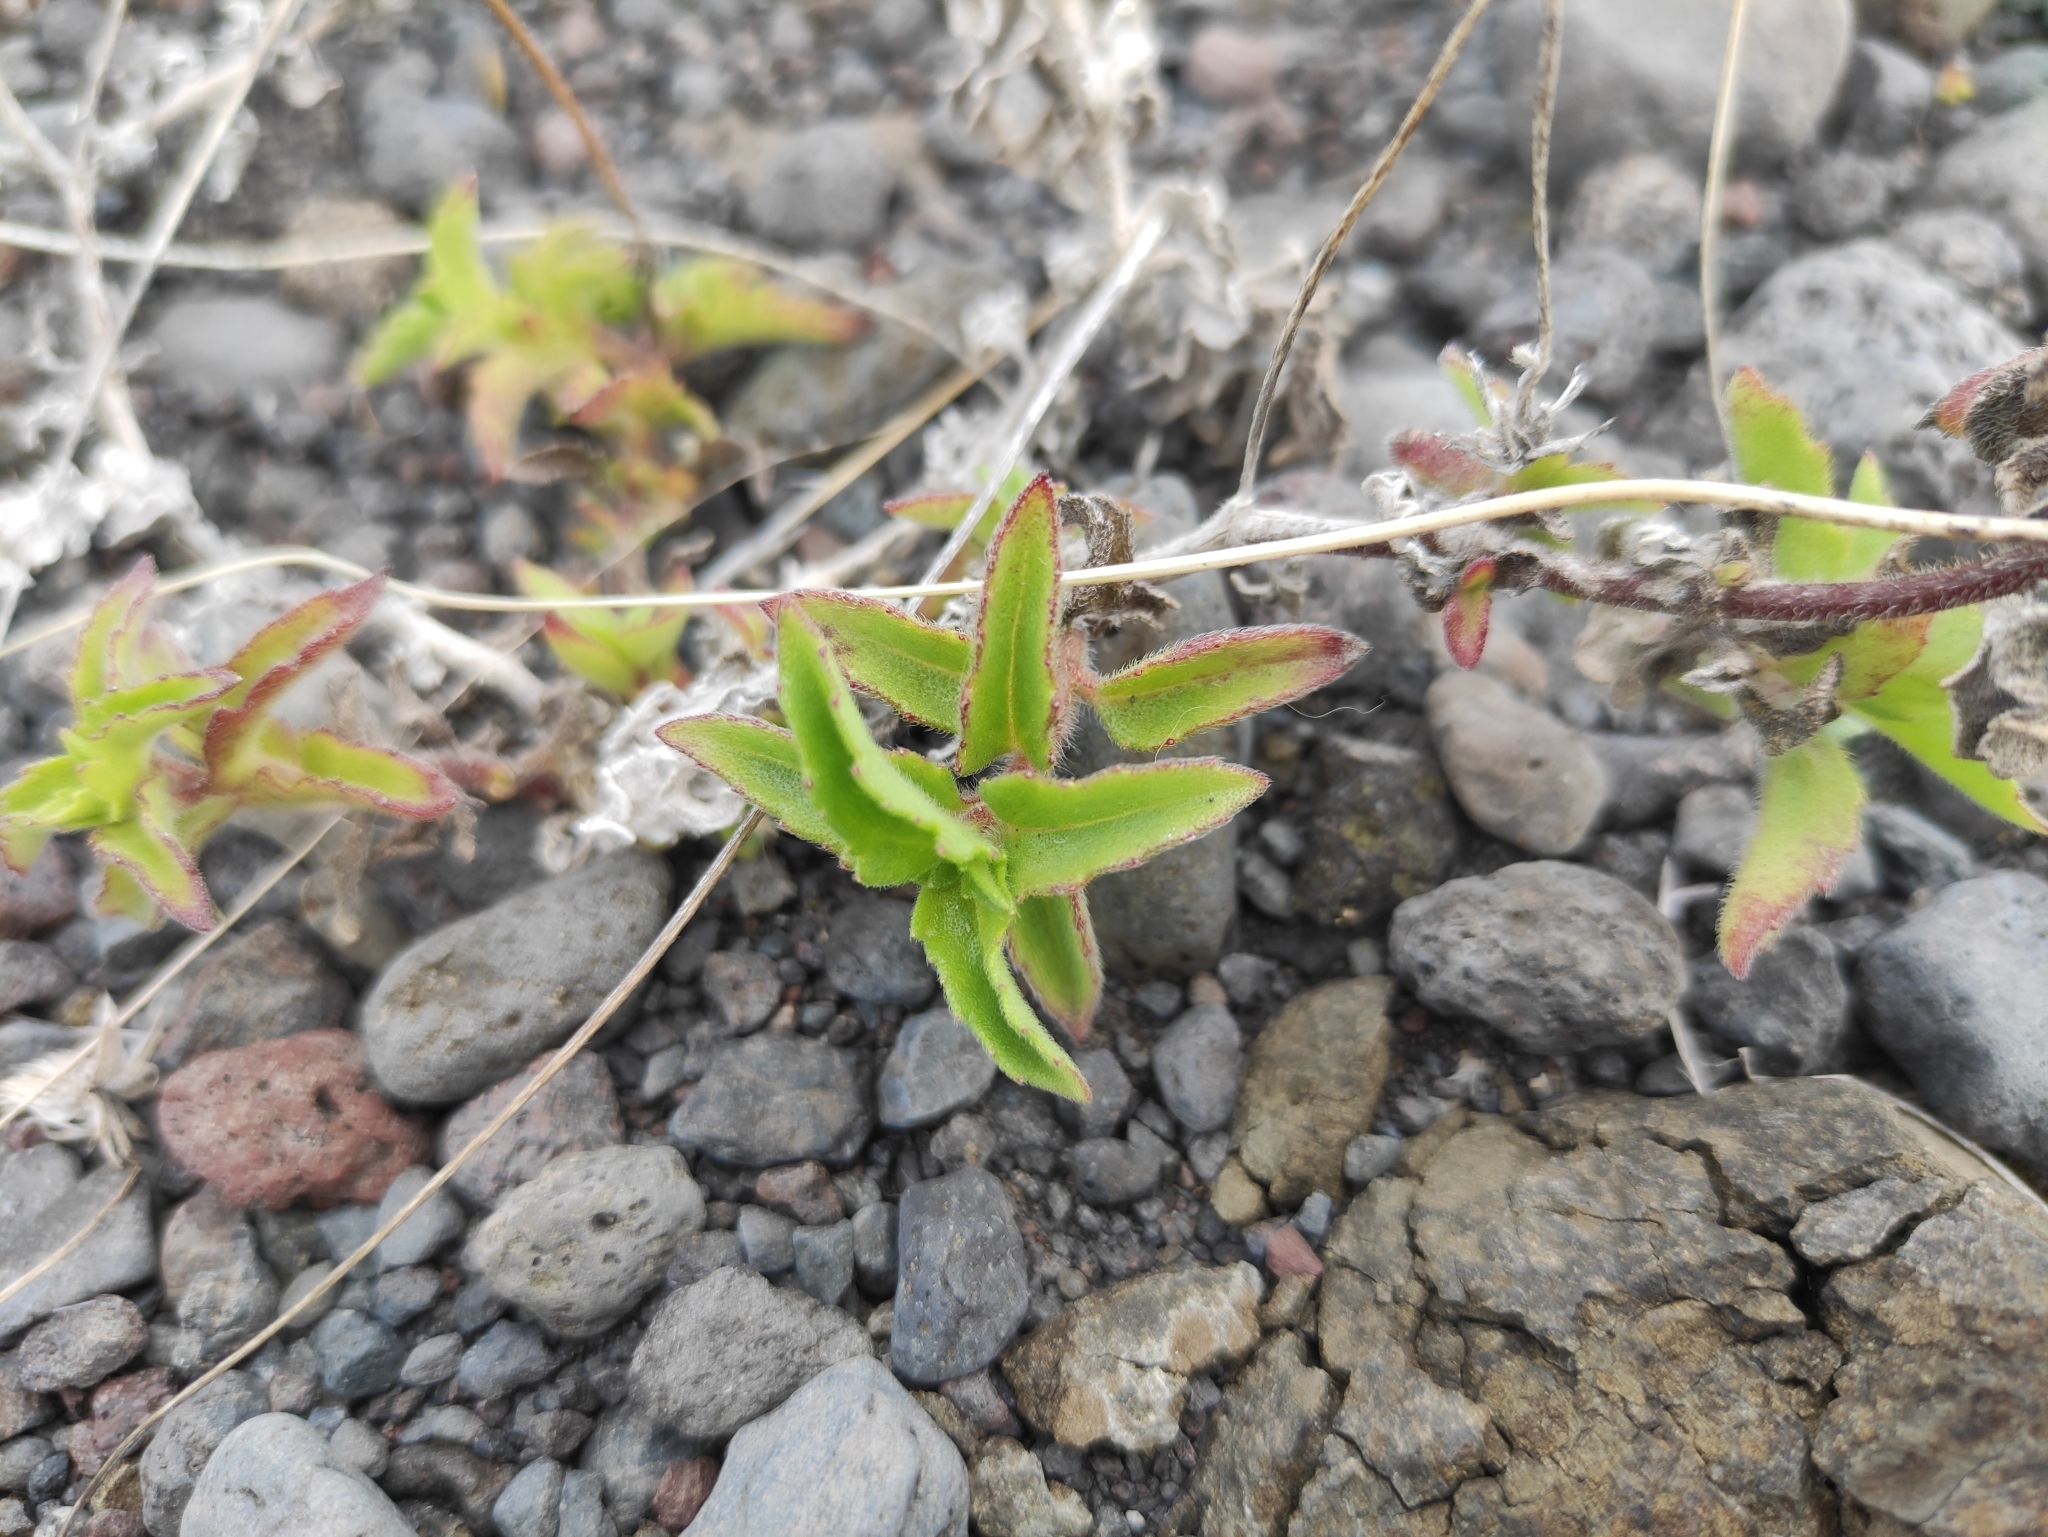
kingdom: Plantae
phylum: Tracheophyta
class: Magnoliopsida
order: Asterales
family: Asteraceae
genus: Tridax
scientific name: Tridax procumbens
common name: Coatbuttons
